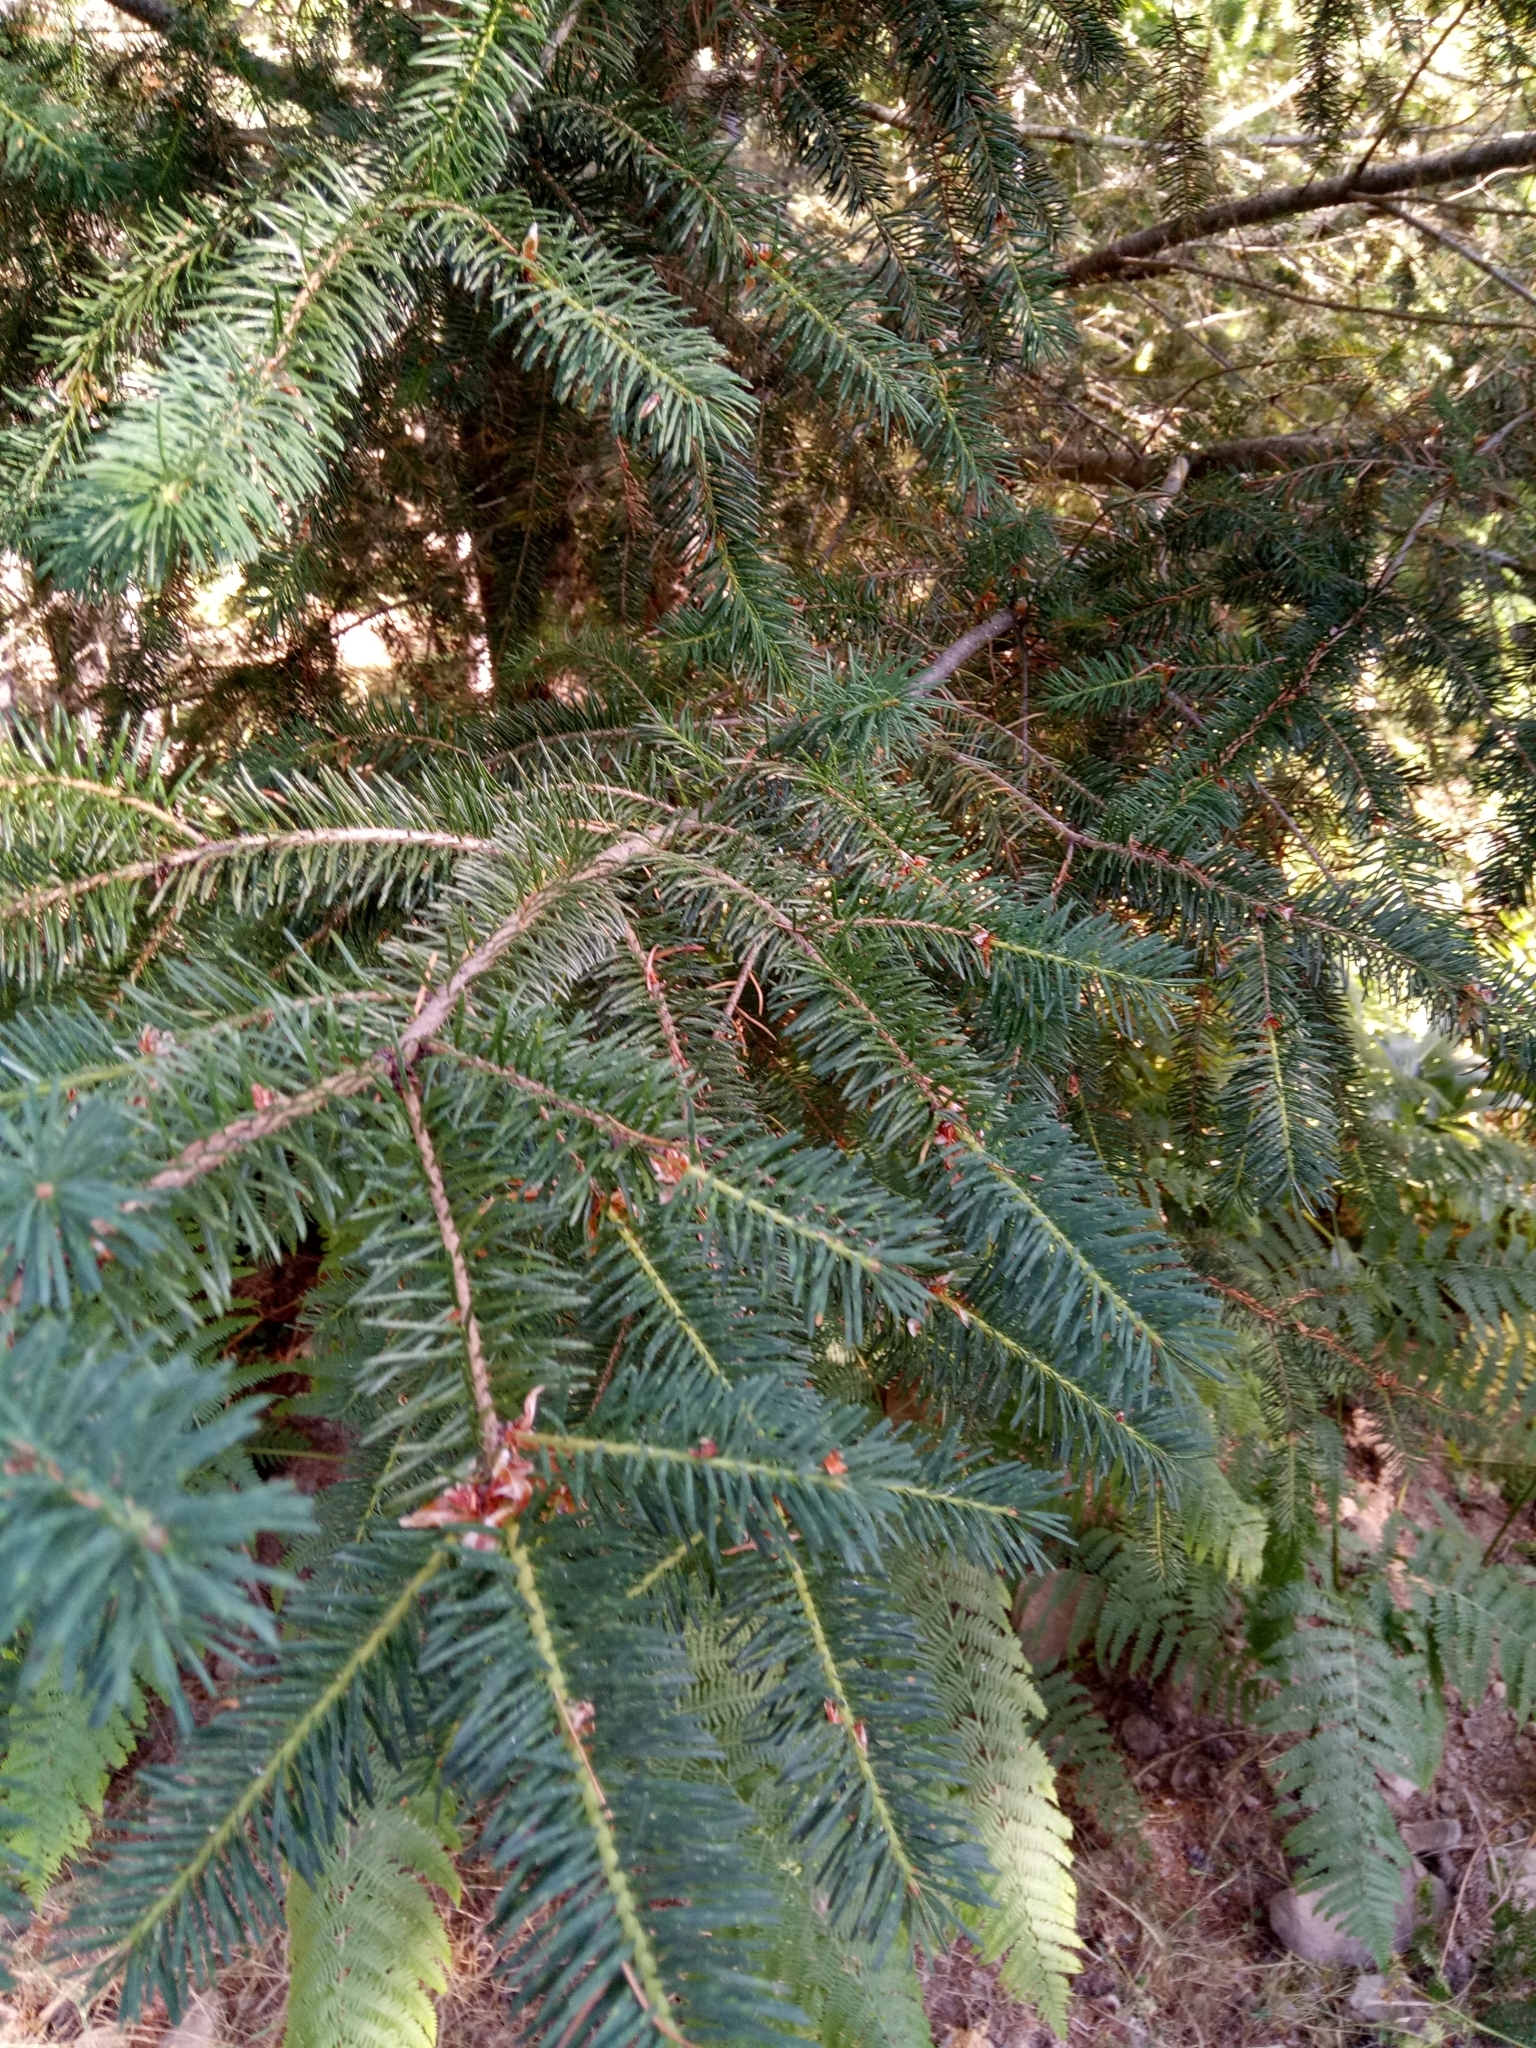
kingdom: Plantae
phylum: Tracheophyta
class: Pinopsida
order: Pinales
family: Pinaceae
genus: Pseudotsuga
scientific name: Pseudotsuga menziesii
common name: Douglas fir
